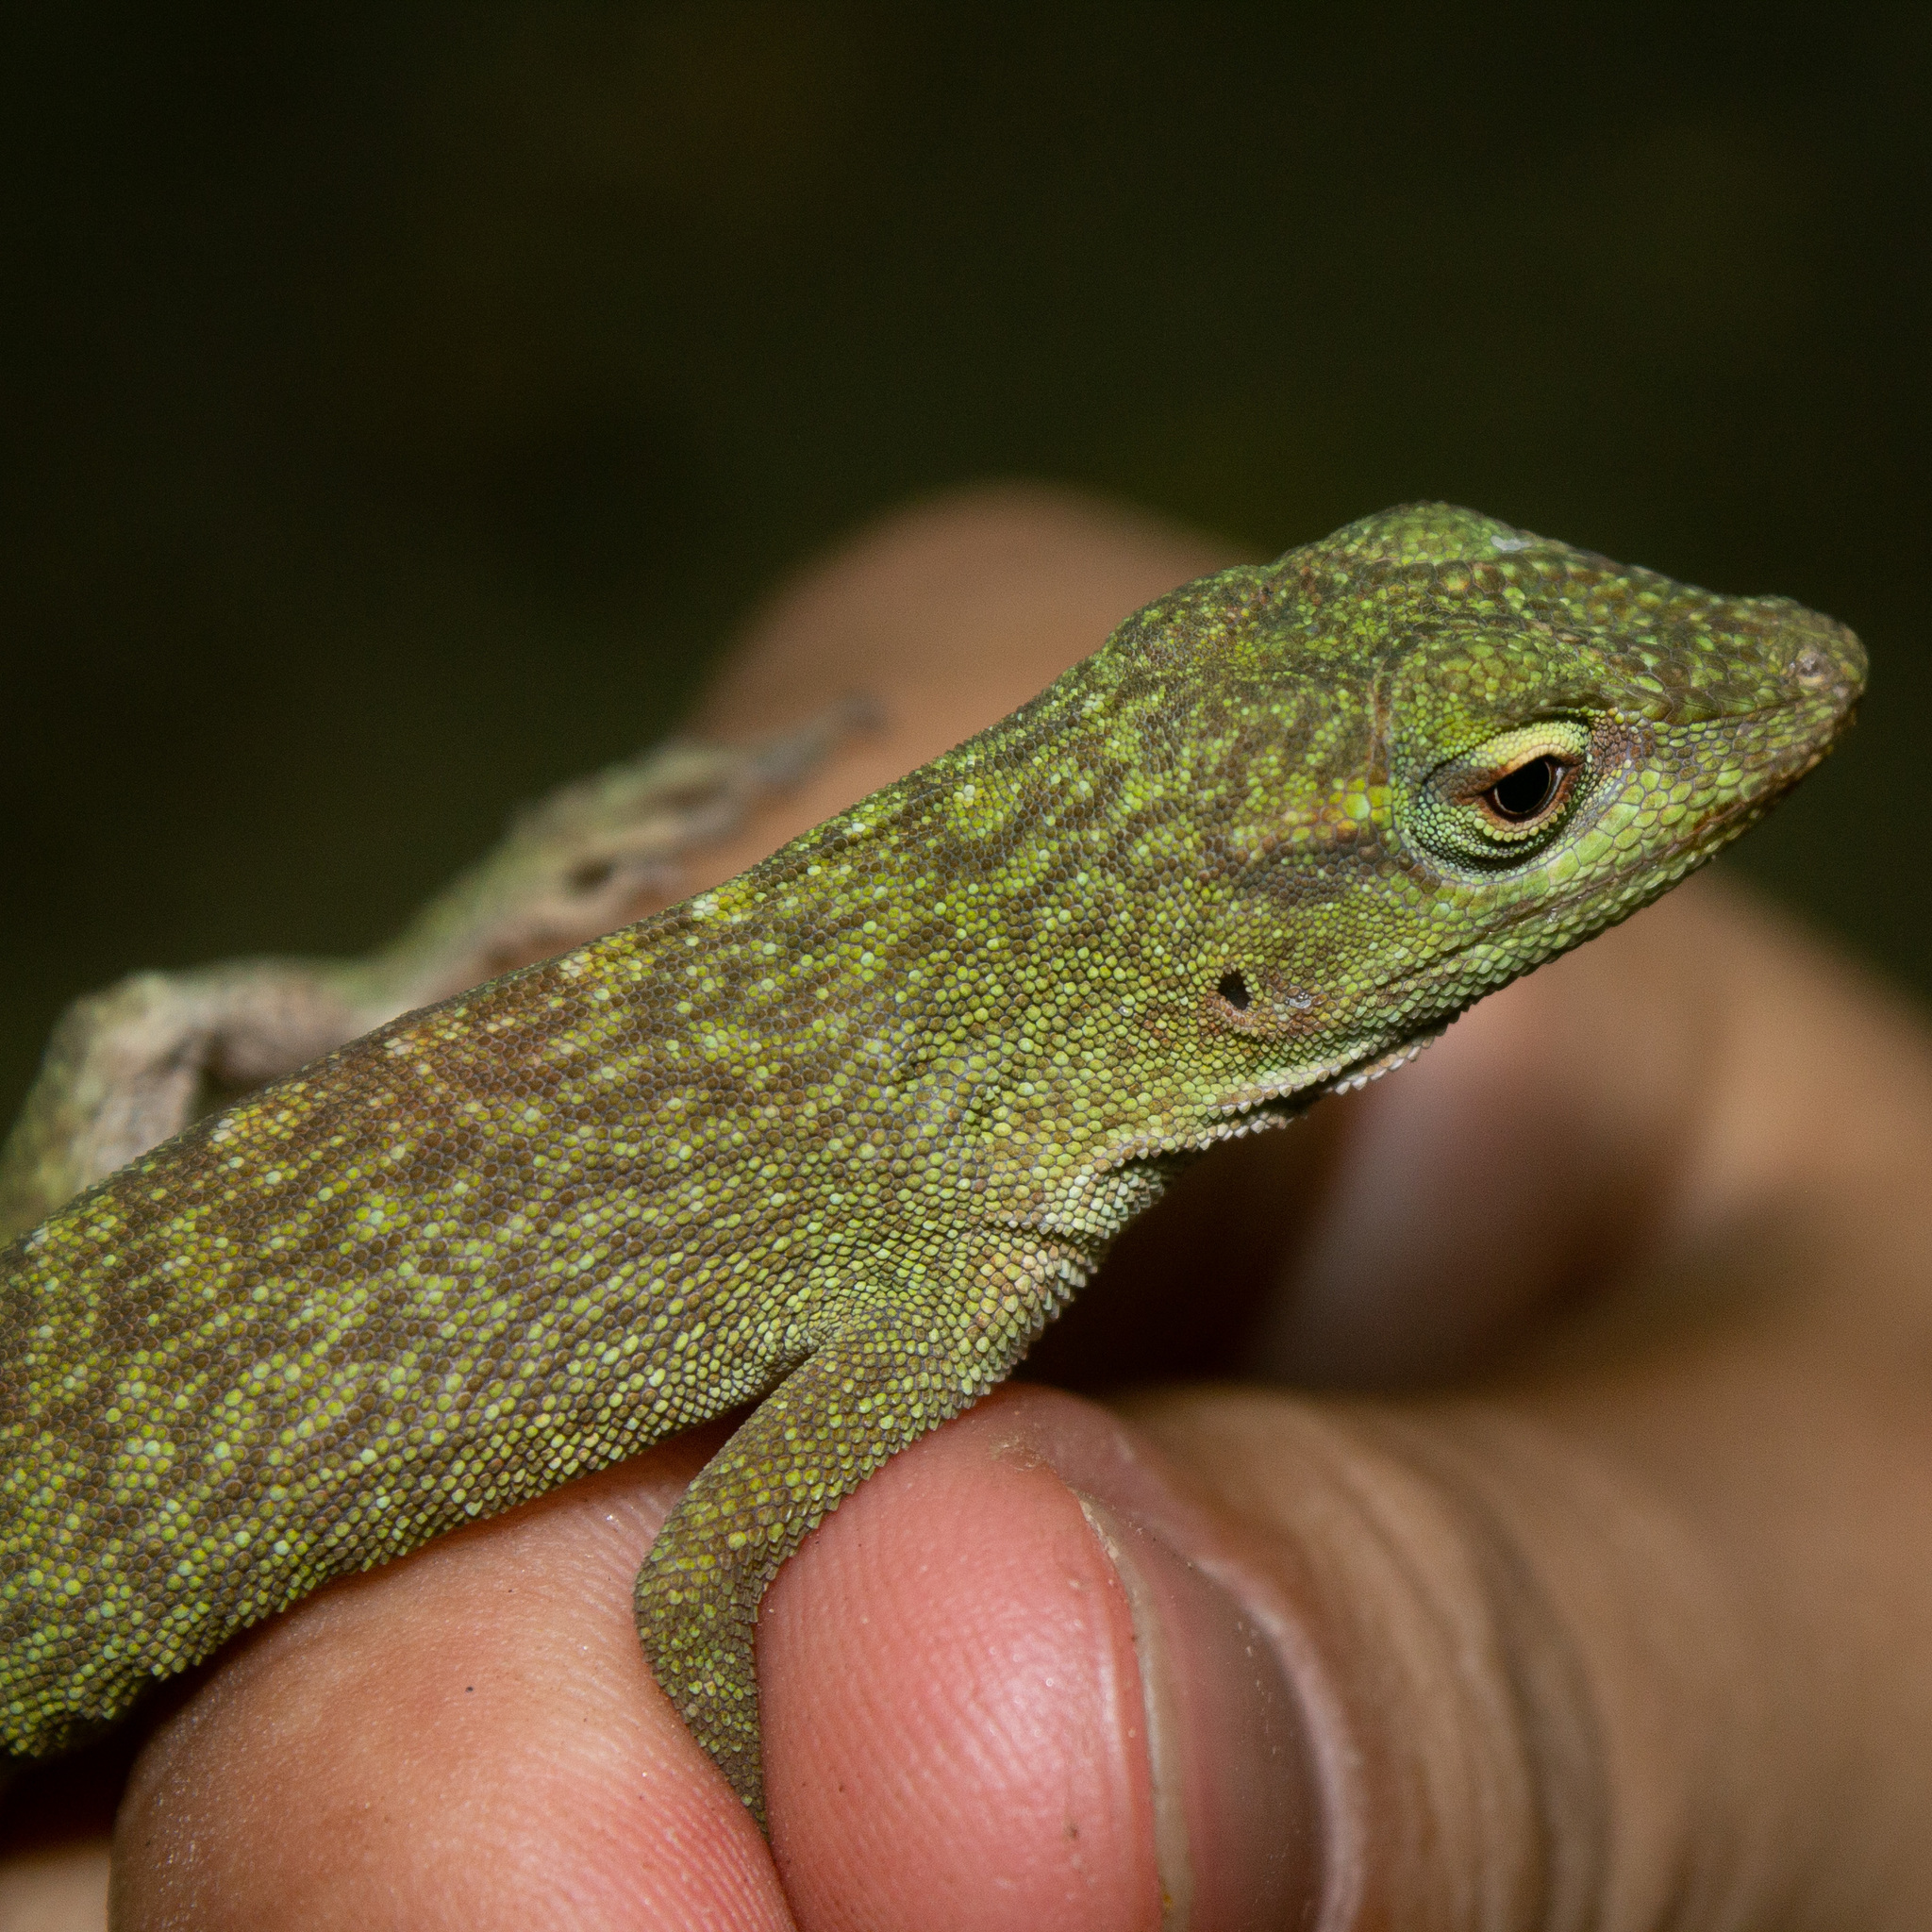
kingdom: Animalia
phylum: Chordata
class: Squamata
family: Dactyloidae
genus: Anolis
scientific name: Anolis biporcatus
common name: Giant green anole
